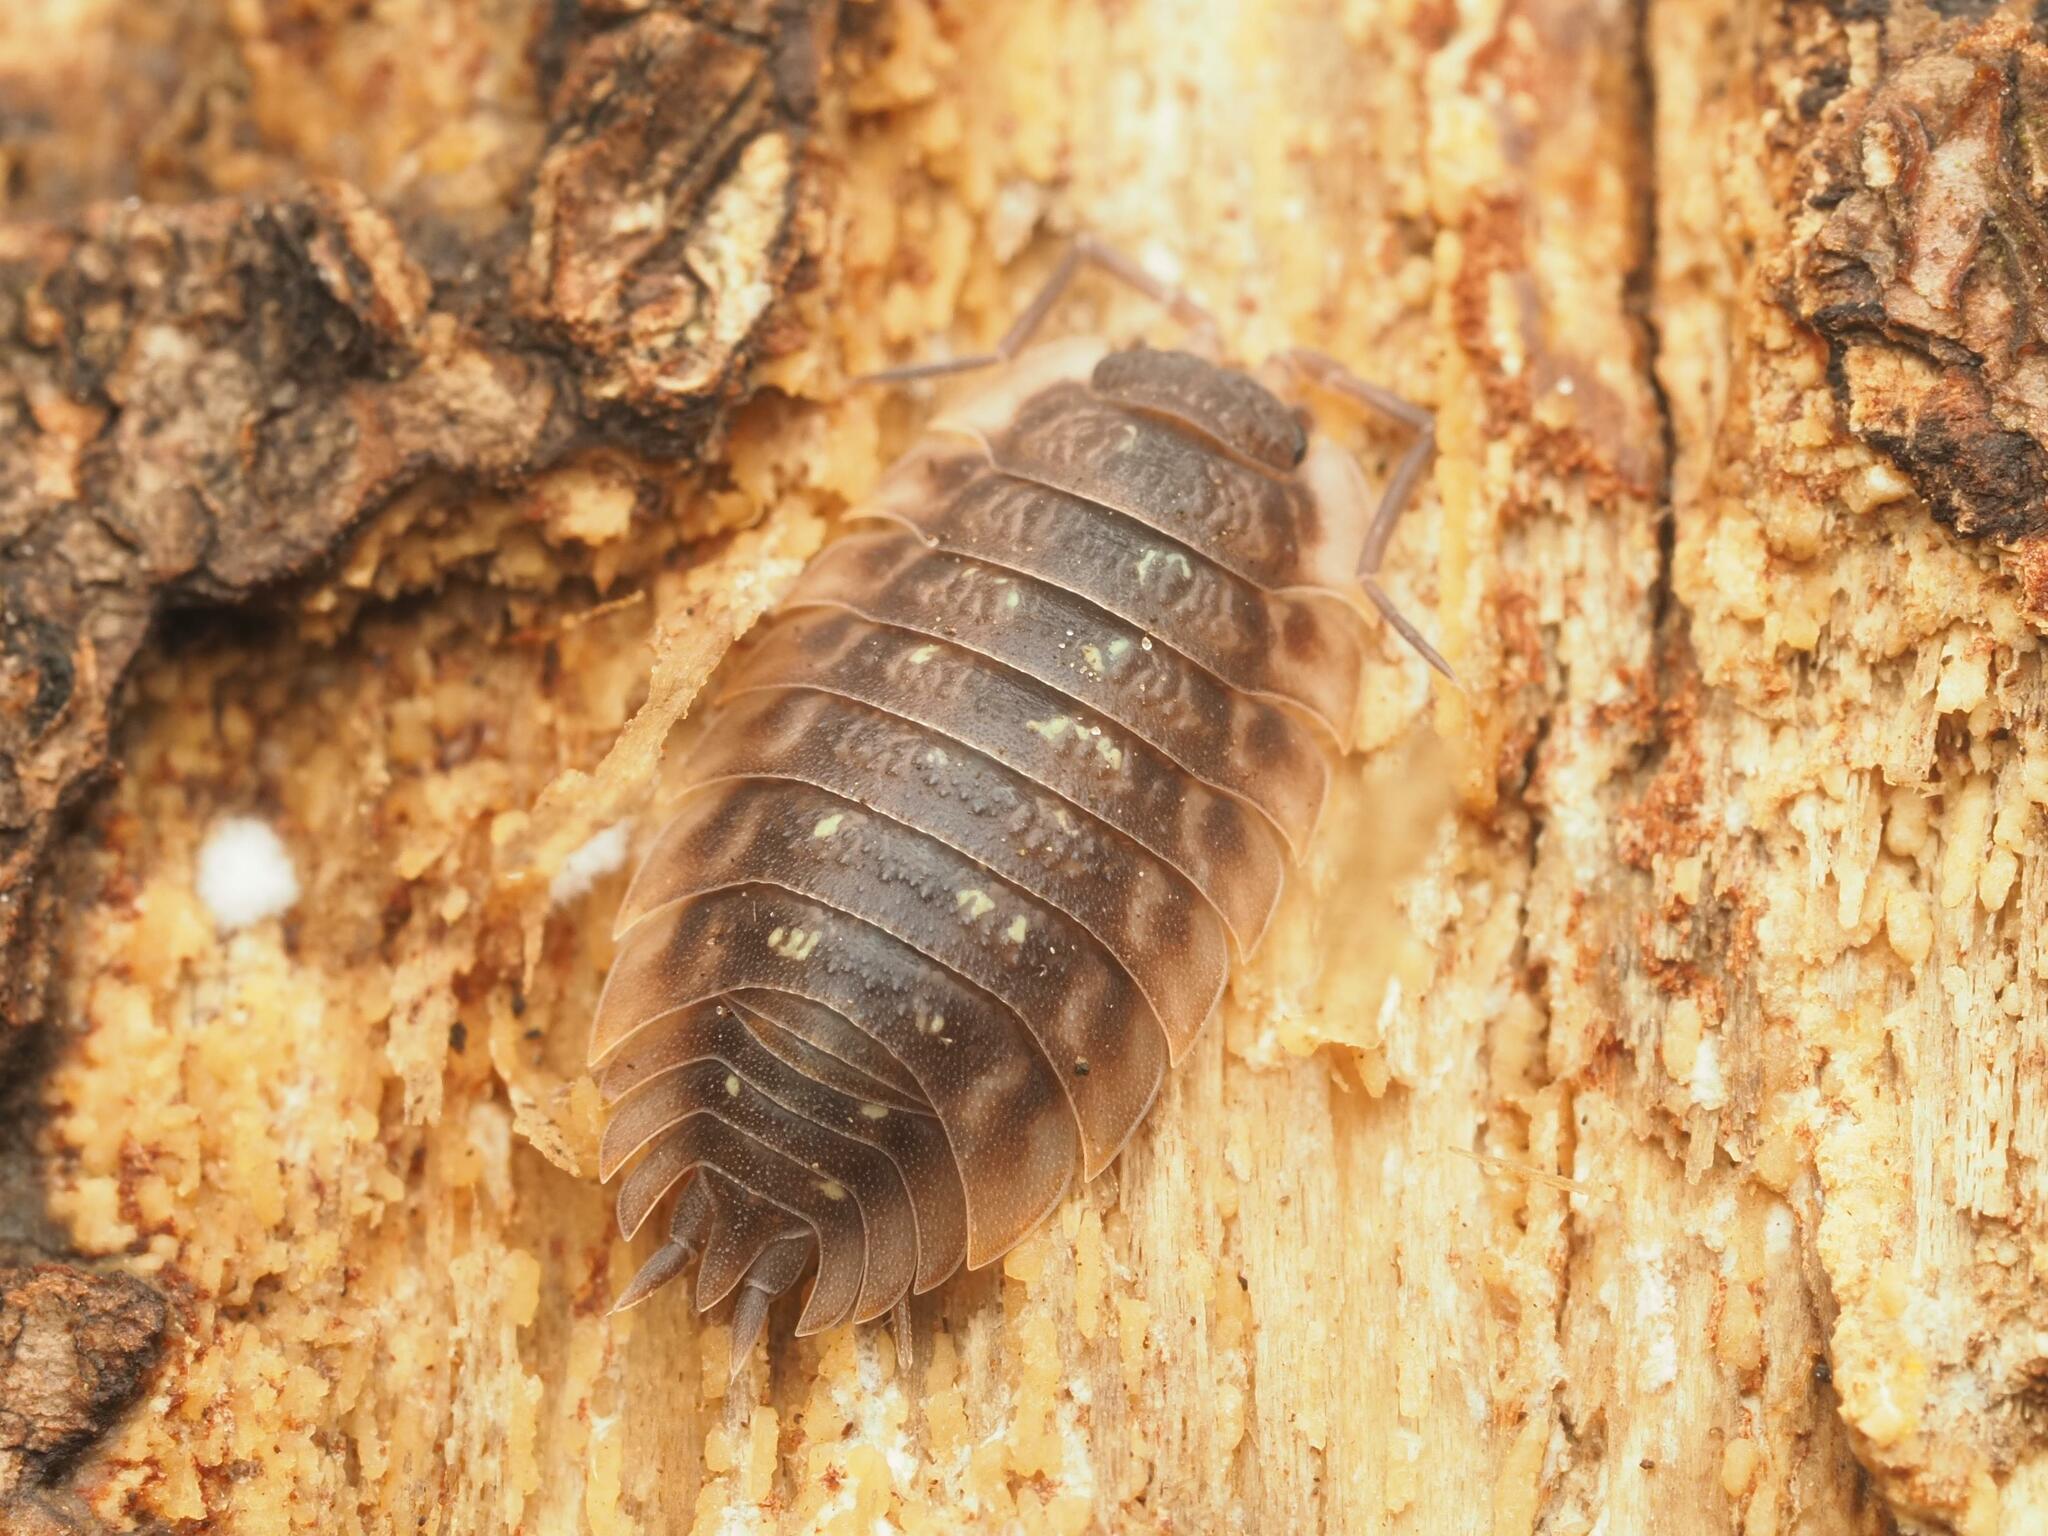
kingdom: Animalia
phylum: Arthropoda
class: Malacostraca
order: Isopoda
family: Oniscidae
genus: Oniscus
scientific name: Oniscus asellus
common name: Common shiny woodlouse
